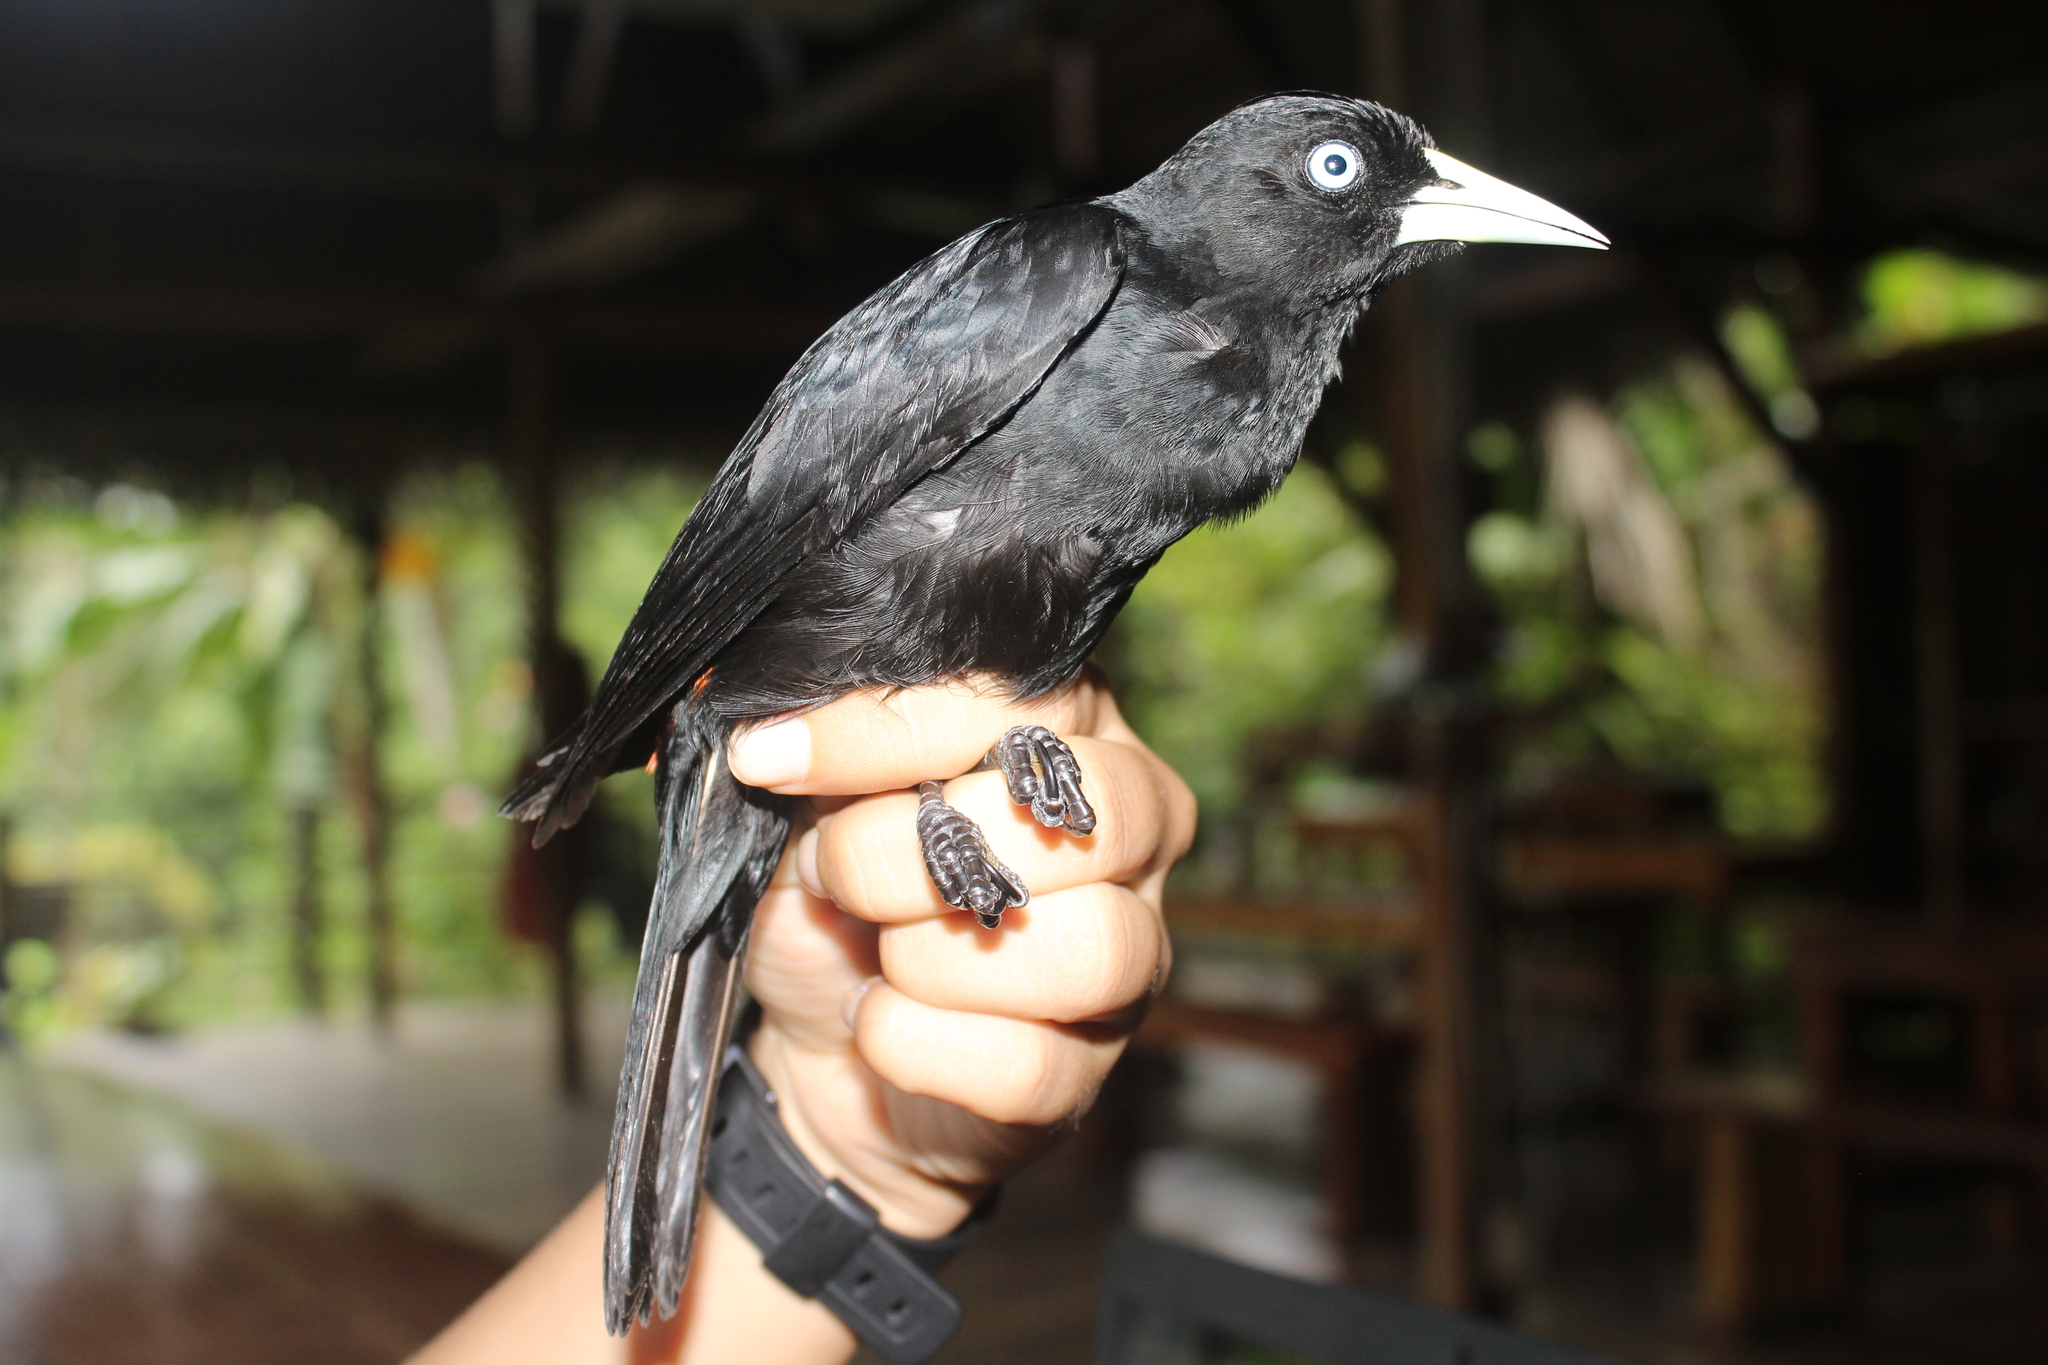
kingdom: Animalia
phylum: Chordata
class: Aves
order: Passeriformes
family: Icteridae
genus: Cacicus
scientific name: Cacicus uropygialis
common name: Scarlet-rumped cacique
